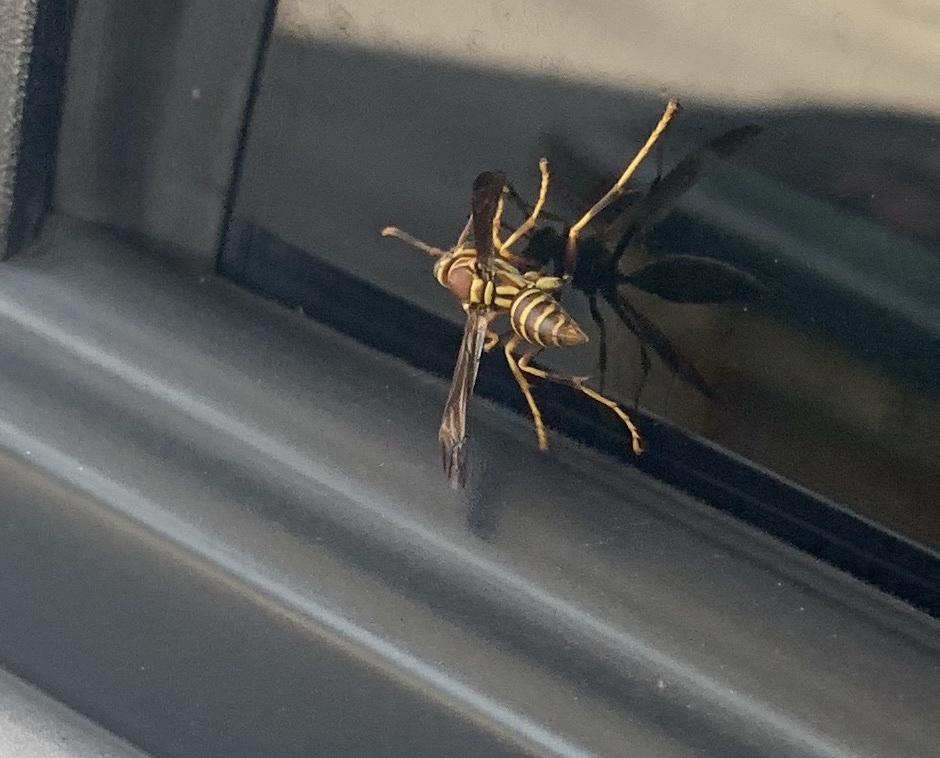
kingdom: Animalia
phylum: Arthropoda
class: Insecta
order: Hymenoptera
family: Eumenidae
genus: Polistes
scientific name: Polistes exclamans
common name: Paper wasp
